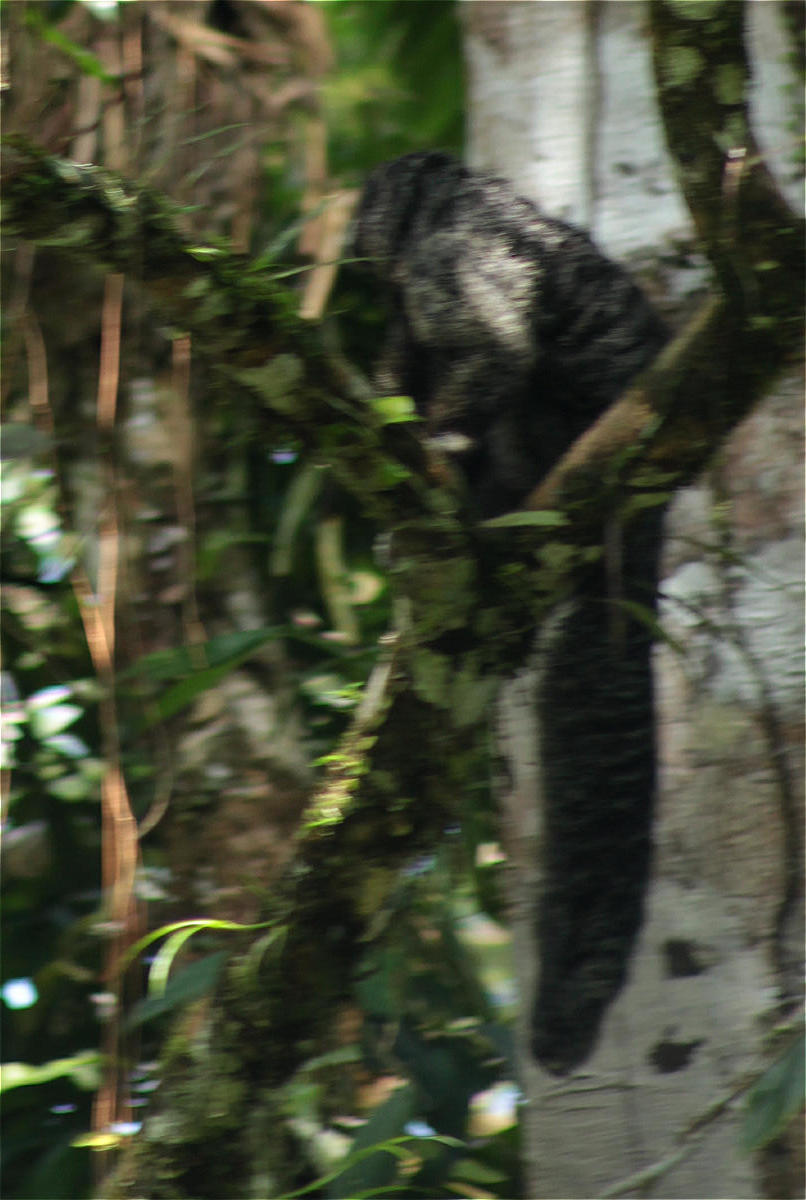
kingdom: Animalia
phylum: Chordata
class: Mammalia
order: Primates
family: Pitheciidae
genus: Pithecia
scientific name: Pithecia milleri
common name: Miller's saki
